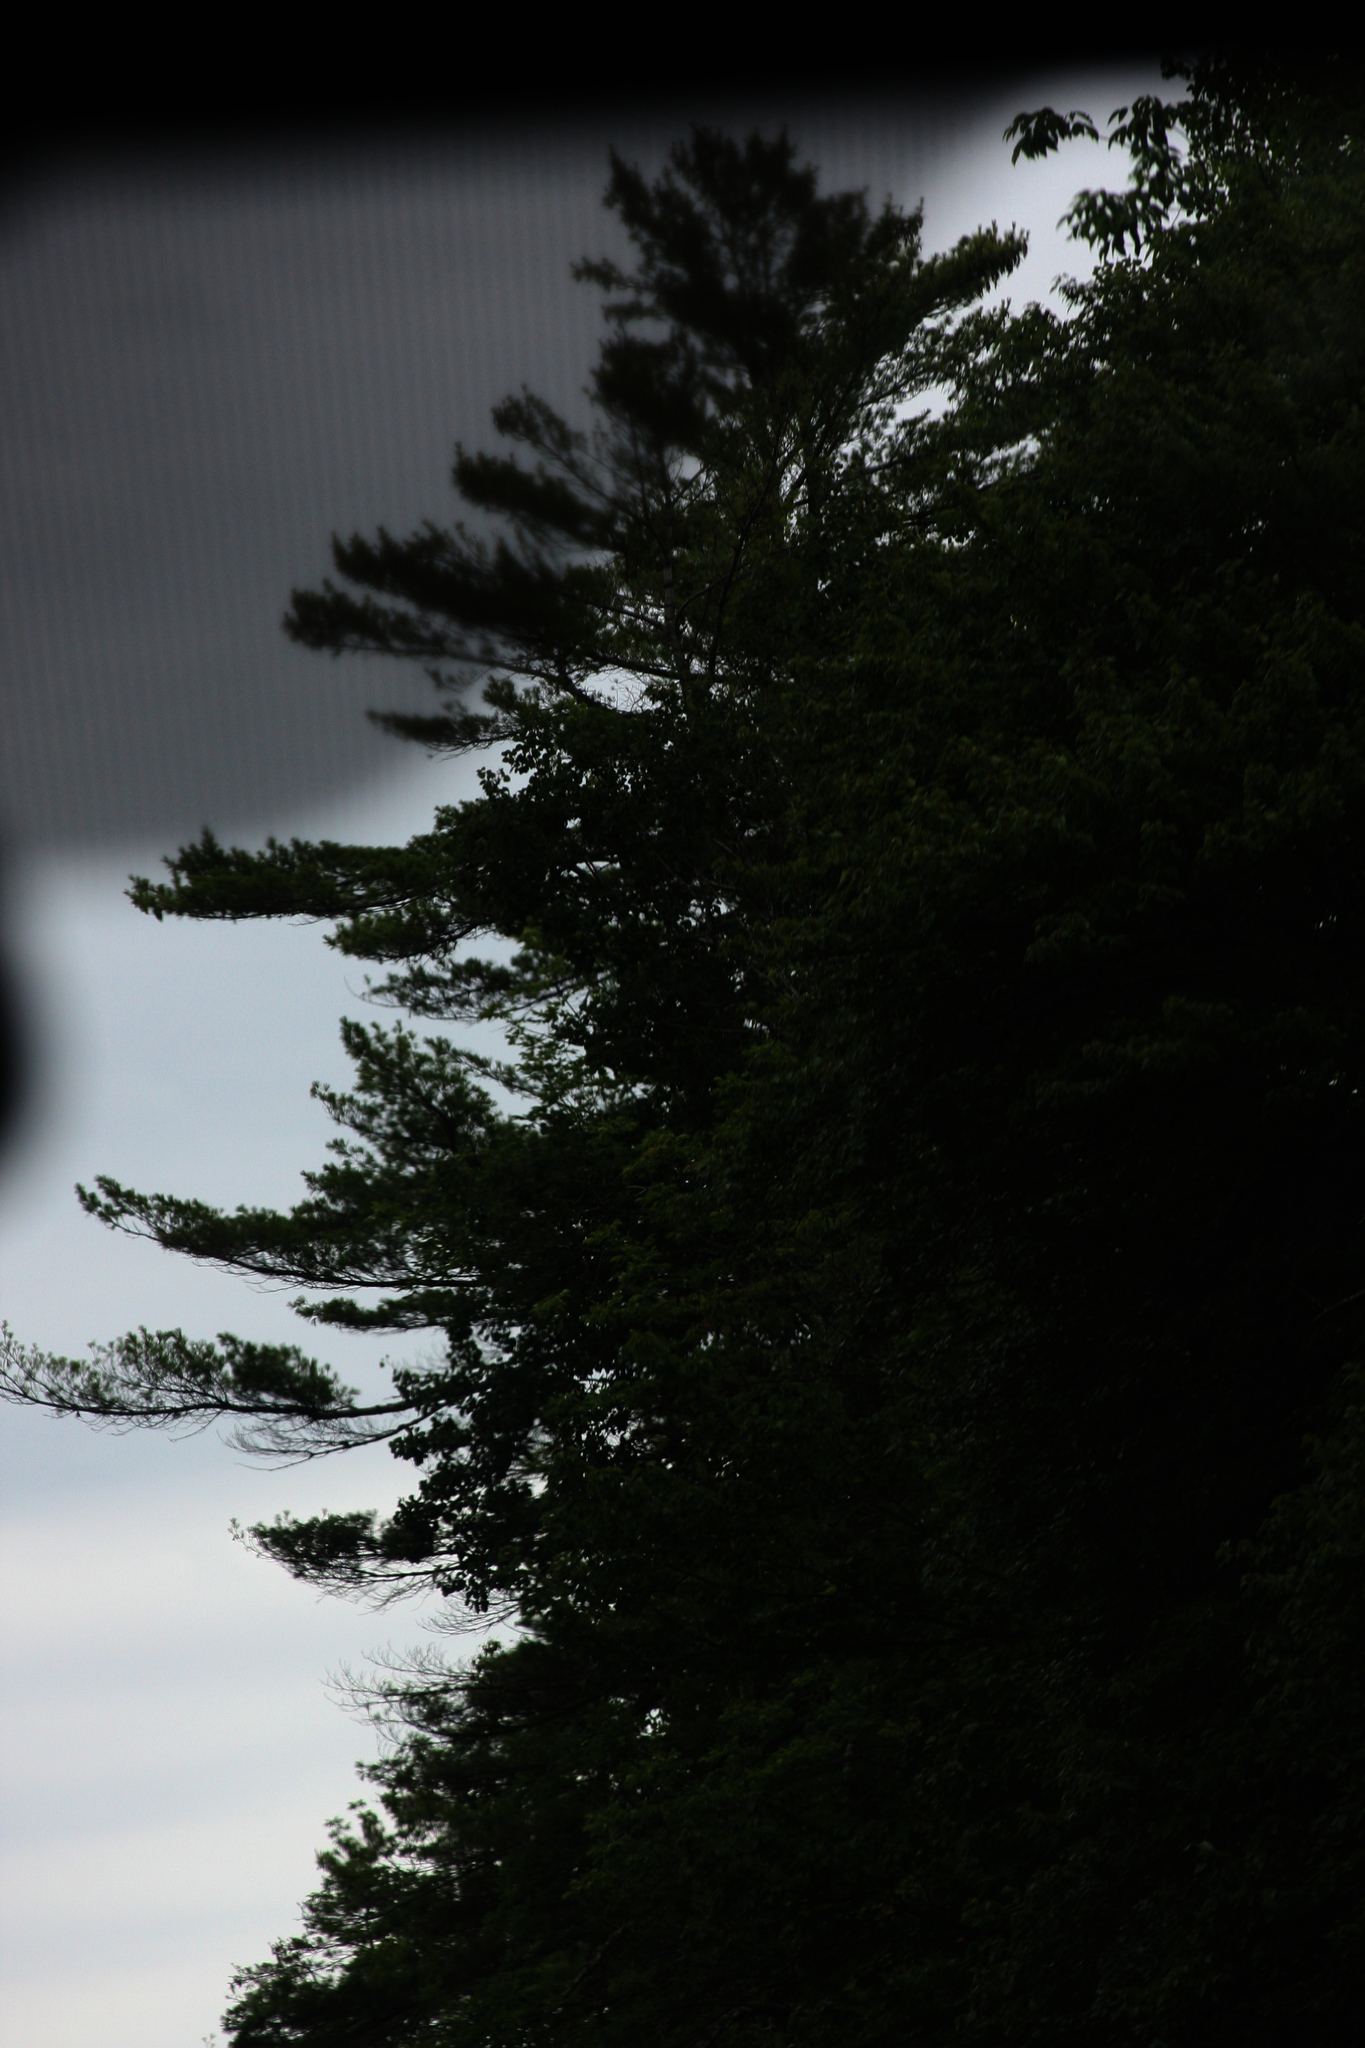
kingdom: Plantae
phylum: Tracheophyta
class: Pinopsida
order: Pinales
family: Pinaceae
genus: Pinus
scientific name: Pinus strobus
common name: Weymouth pine
